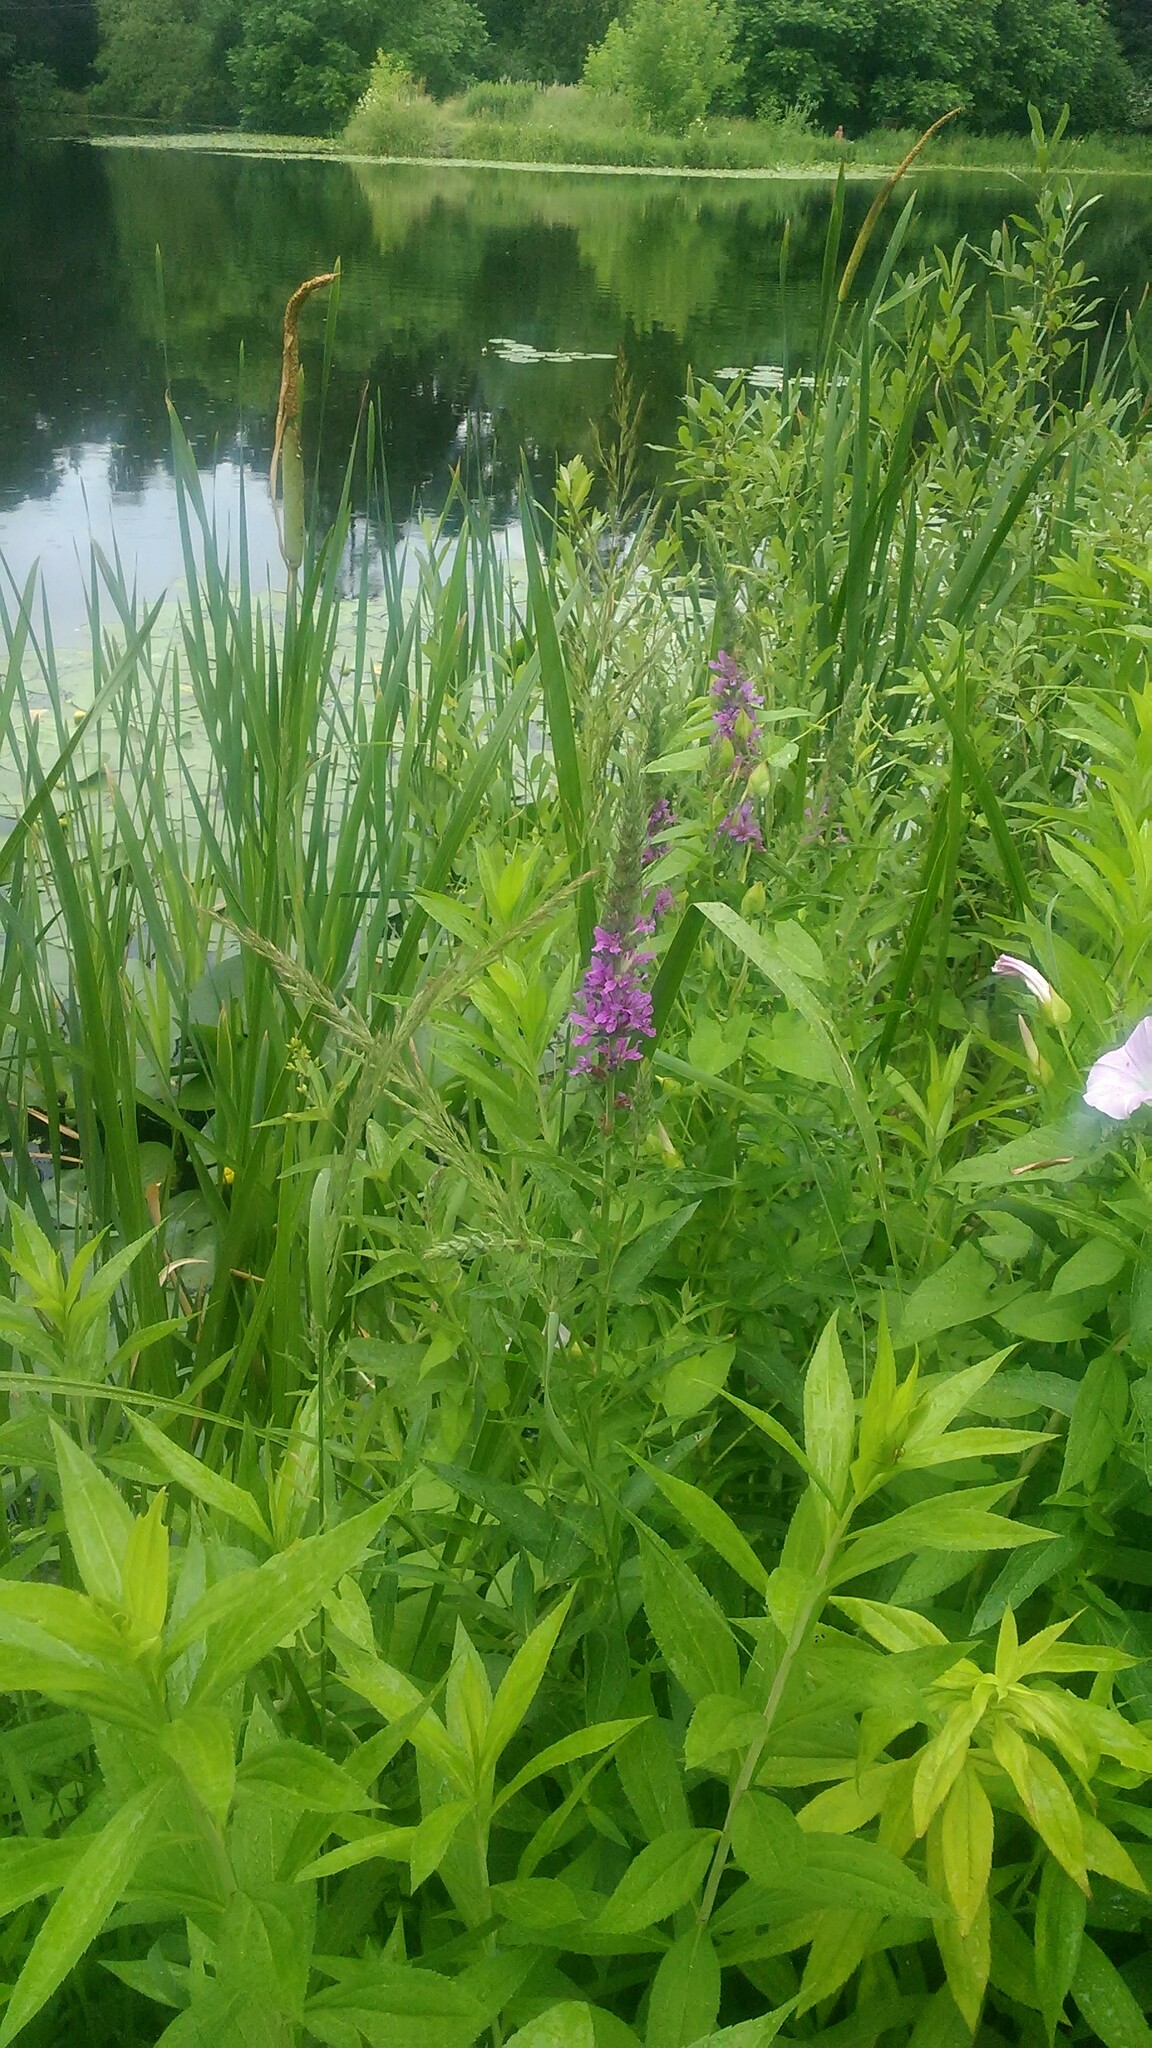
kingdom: Plantae
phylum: Tracheophyta
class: Magnoliopsida
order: Myrtales
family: Lythraceae
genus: Lythrum
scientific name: Lythrum salicaria
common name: Purple loosestrife
